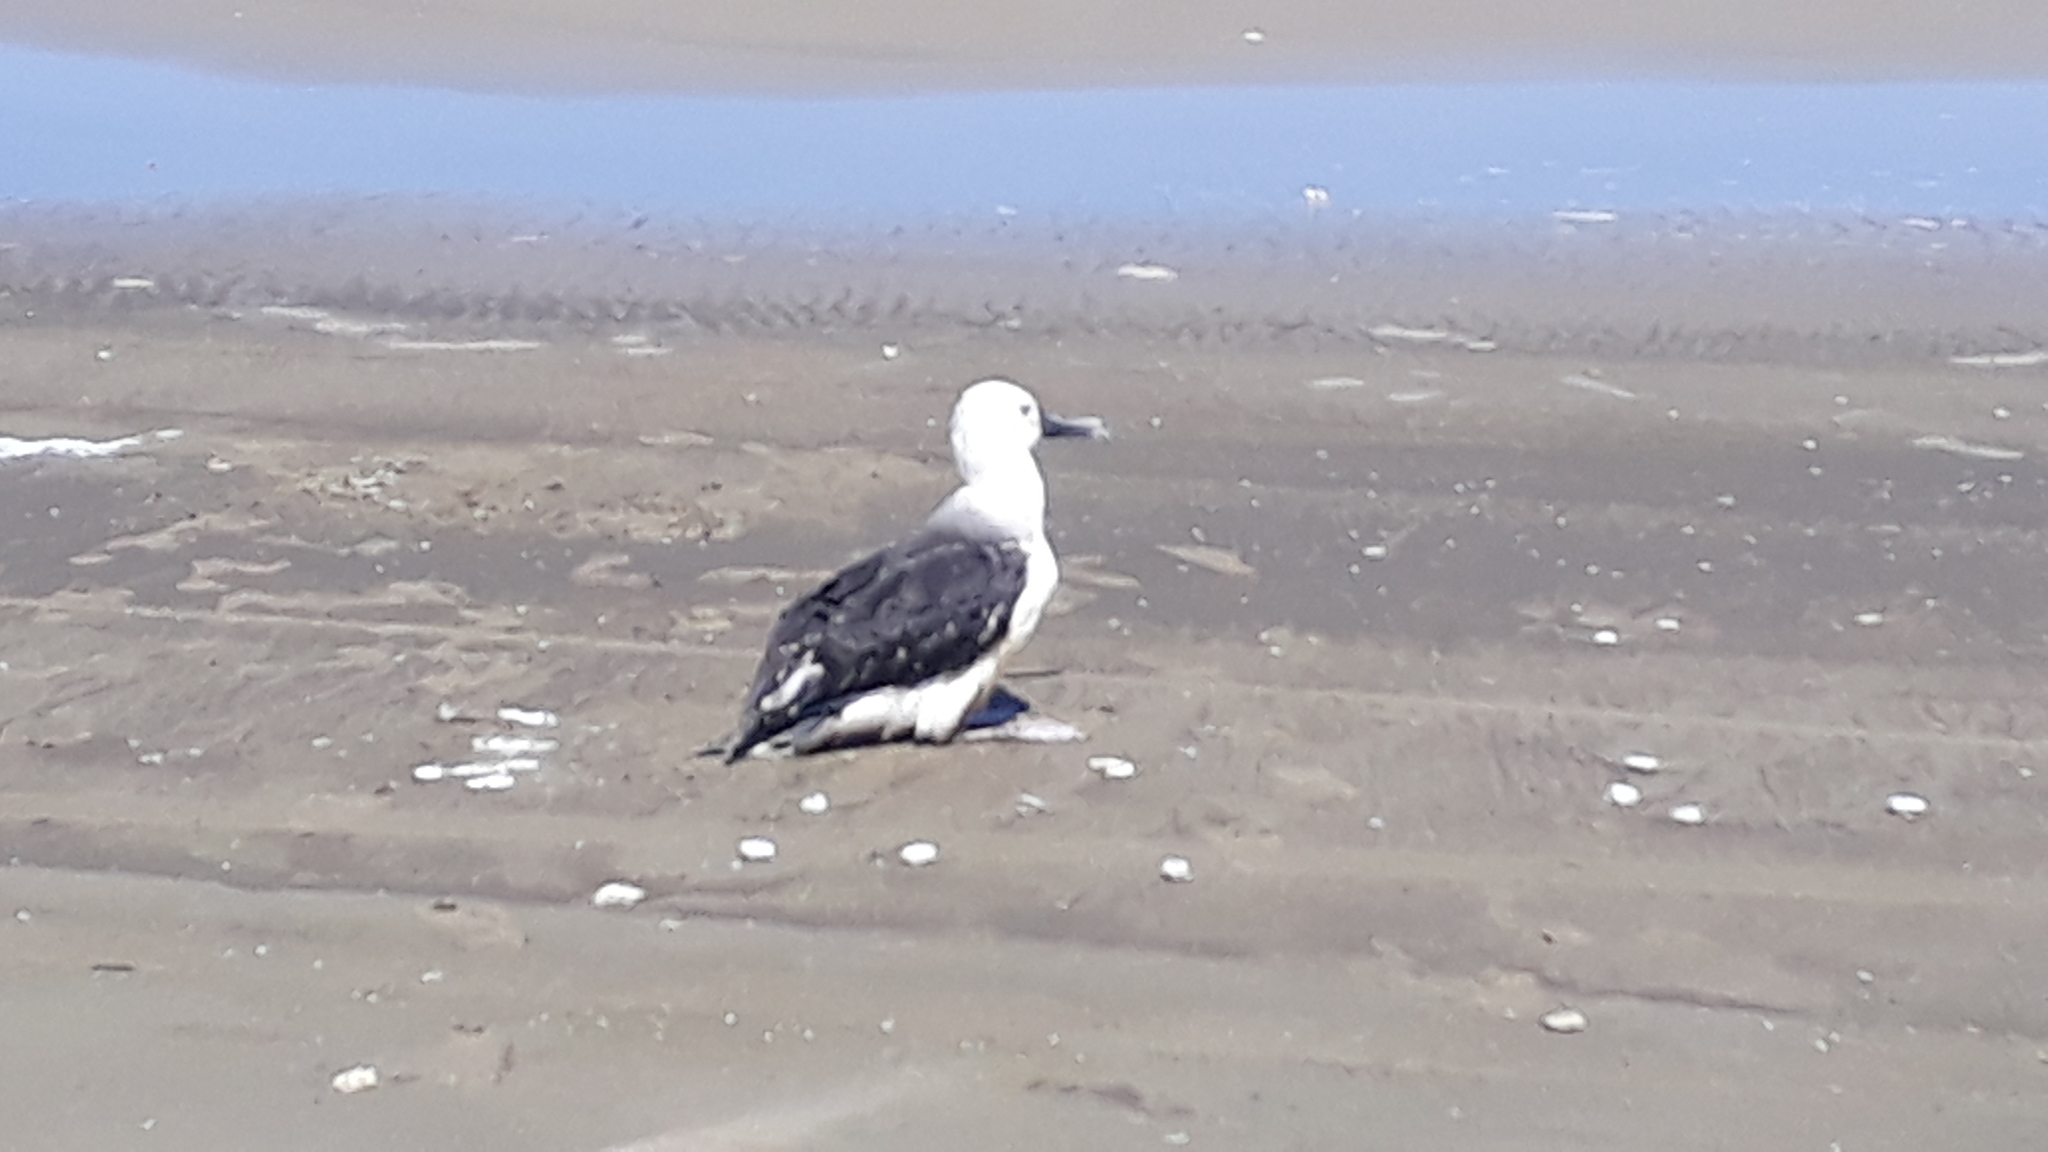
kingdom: Animalia
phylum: Chordata
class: Aves
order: Procellariiformes
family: Diomedeidae
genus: Thalassarche
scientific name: Thalassarche chlororhynchos
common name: Atlantic yellow-nosed albatross
